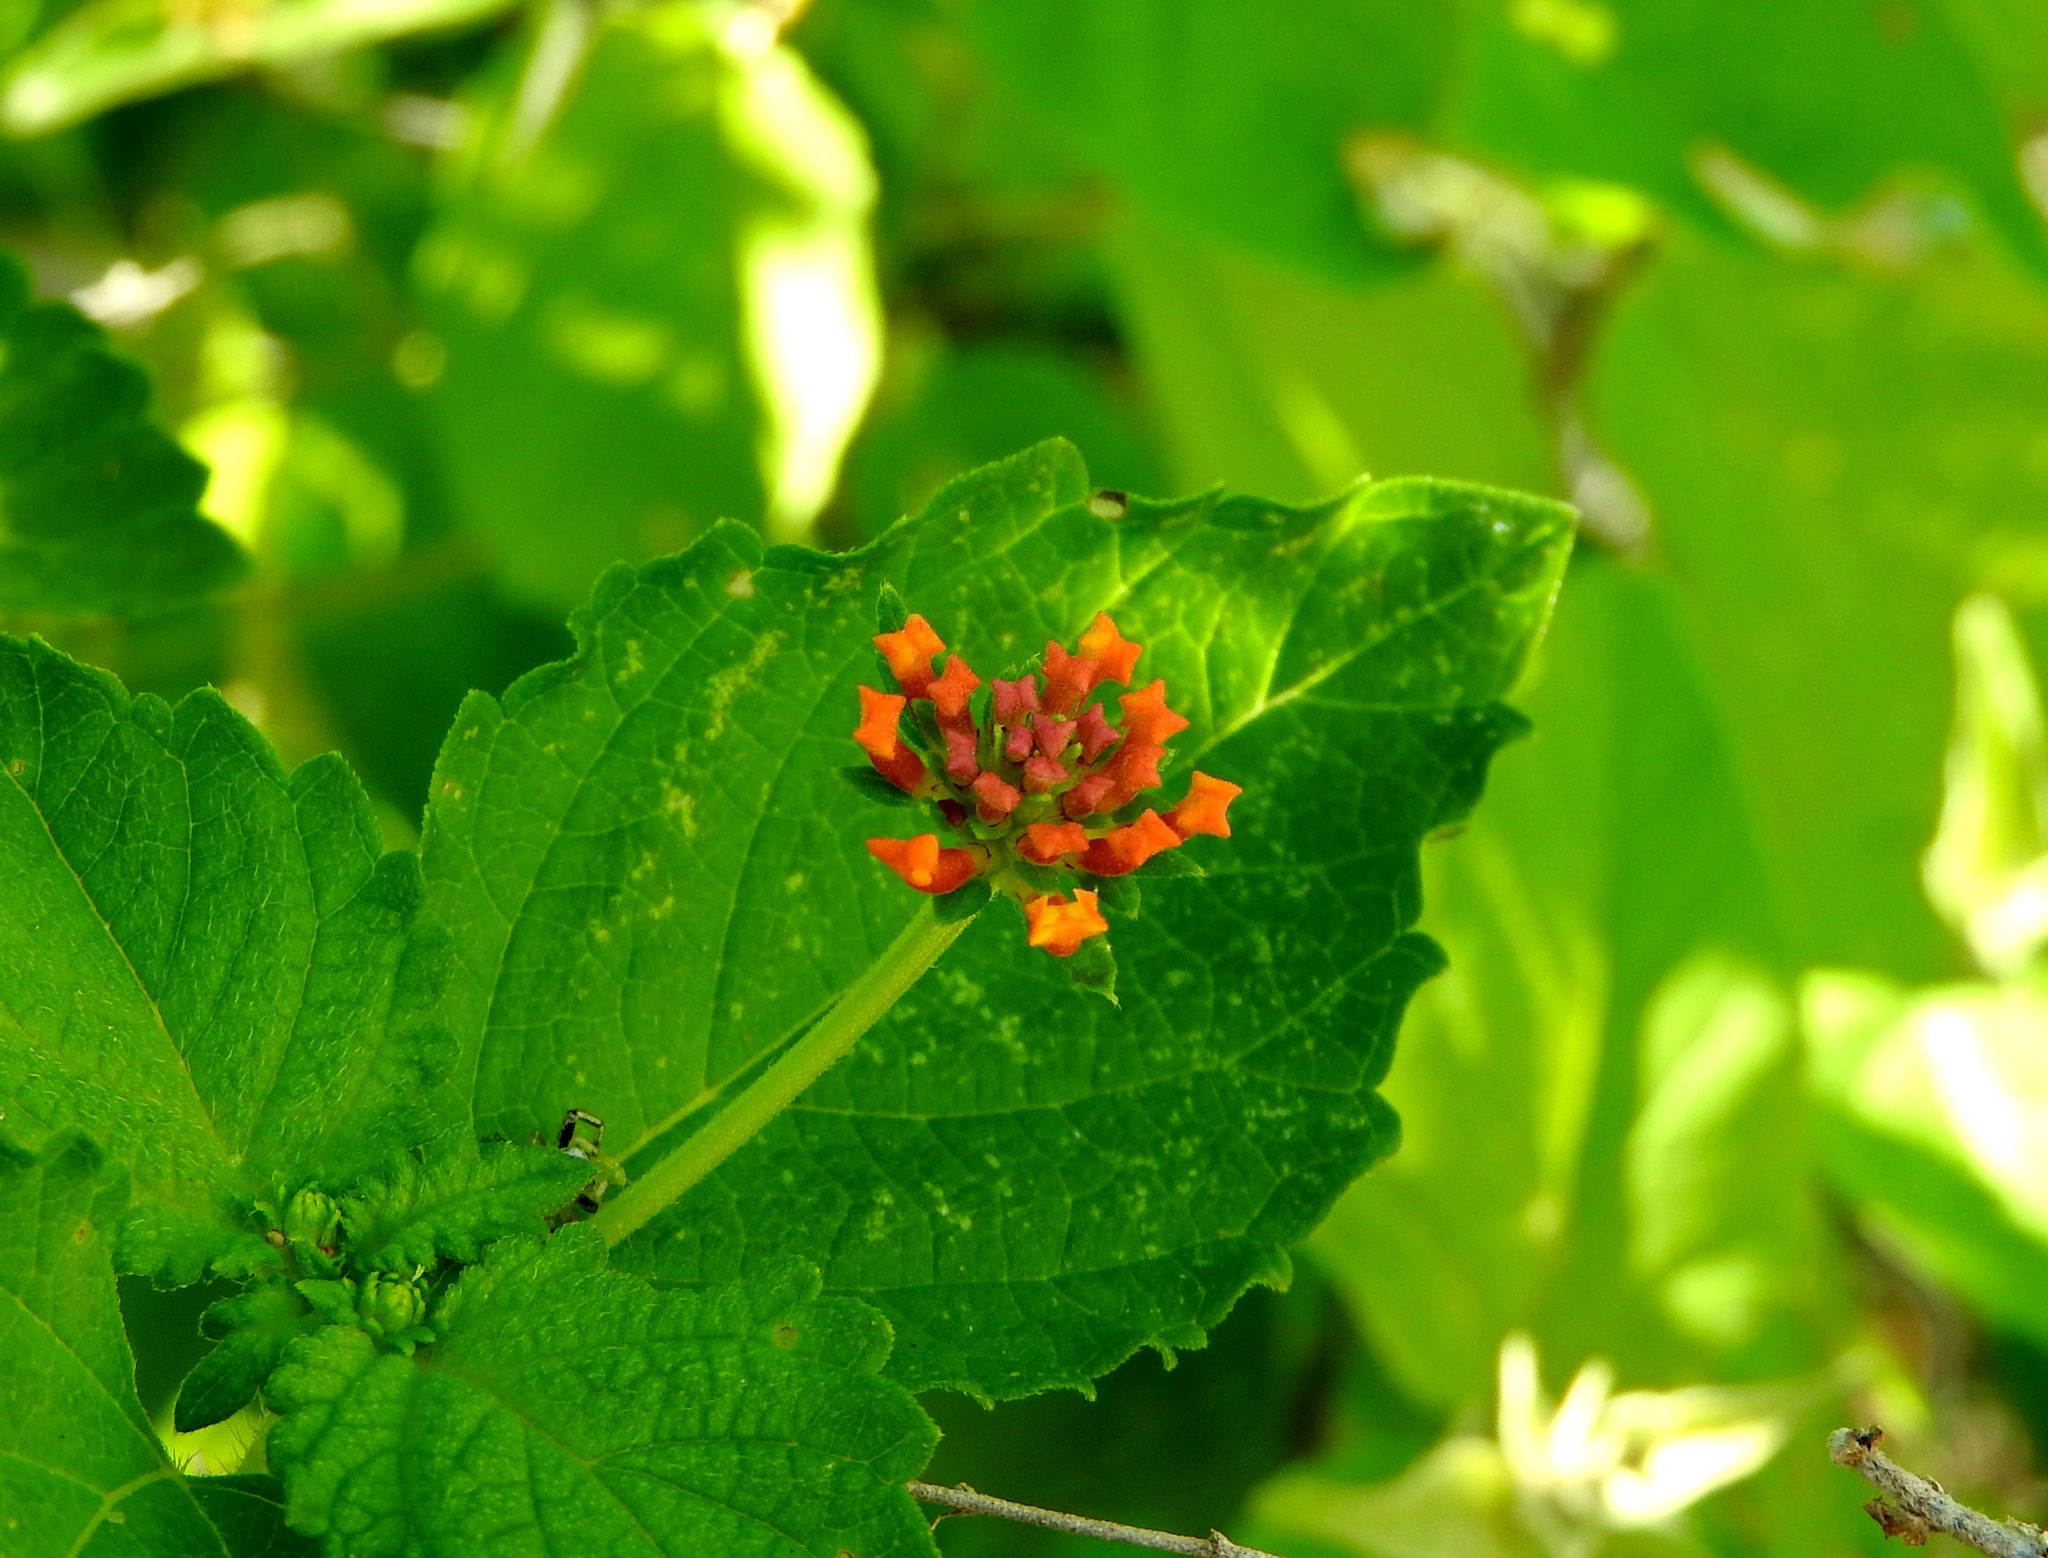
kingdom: Plantae
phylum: Tracheophyta
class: Magnoliopsida
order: Lamiales
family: Verbenaceae
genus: Lantana
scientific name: Lantana camara
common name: Lantana
